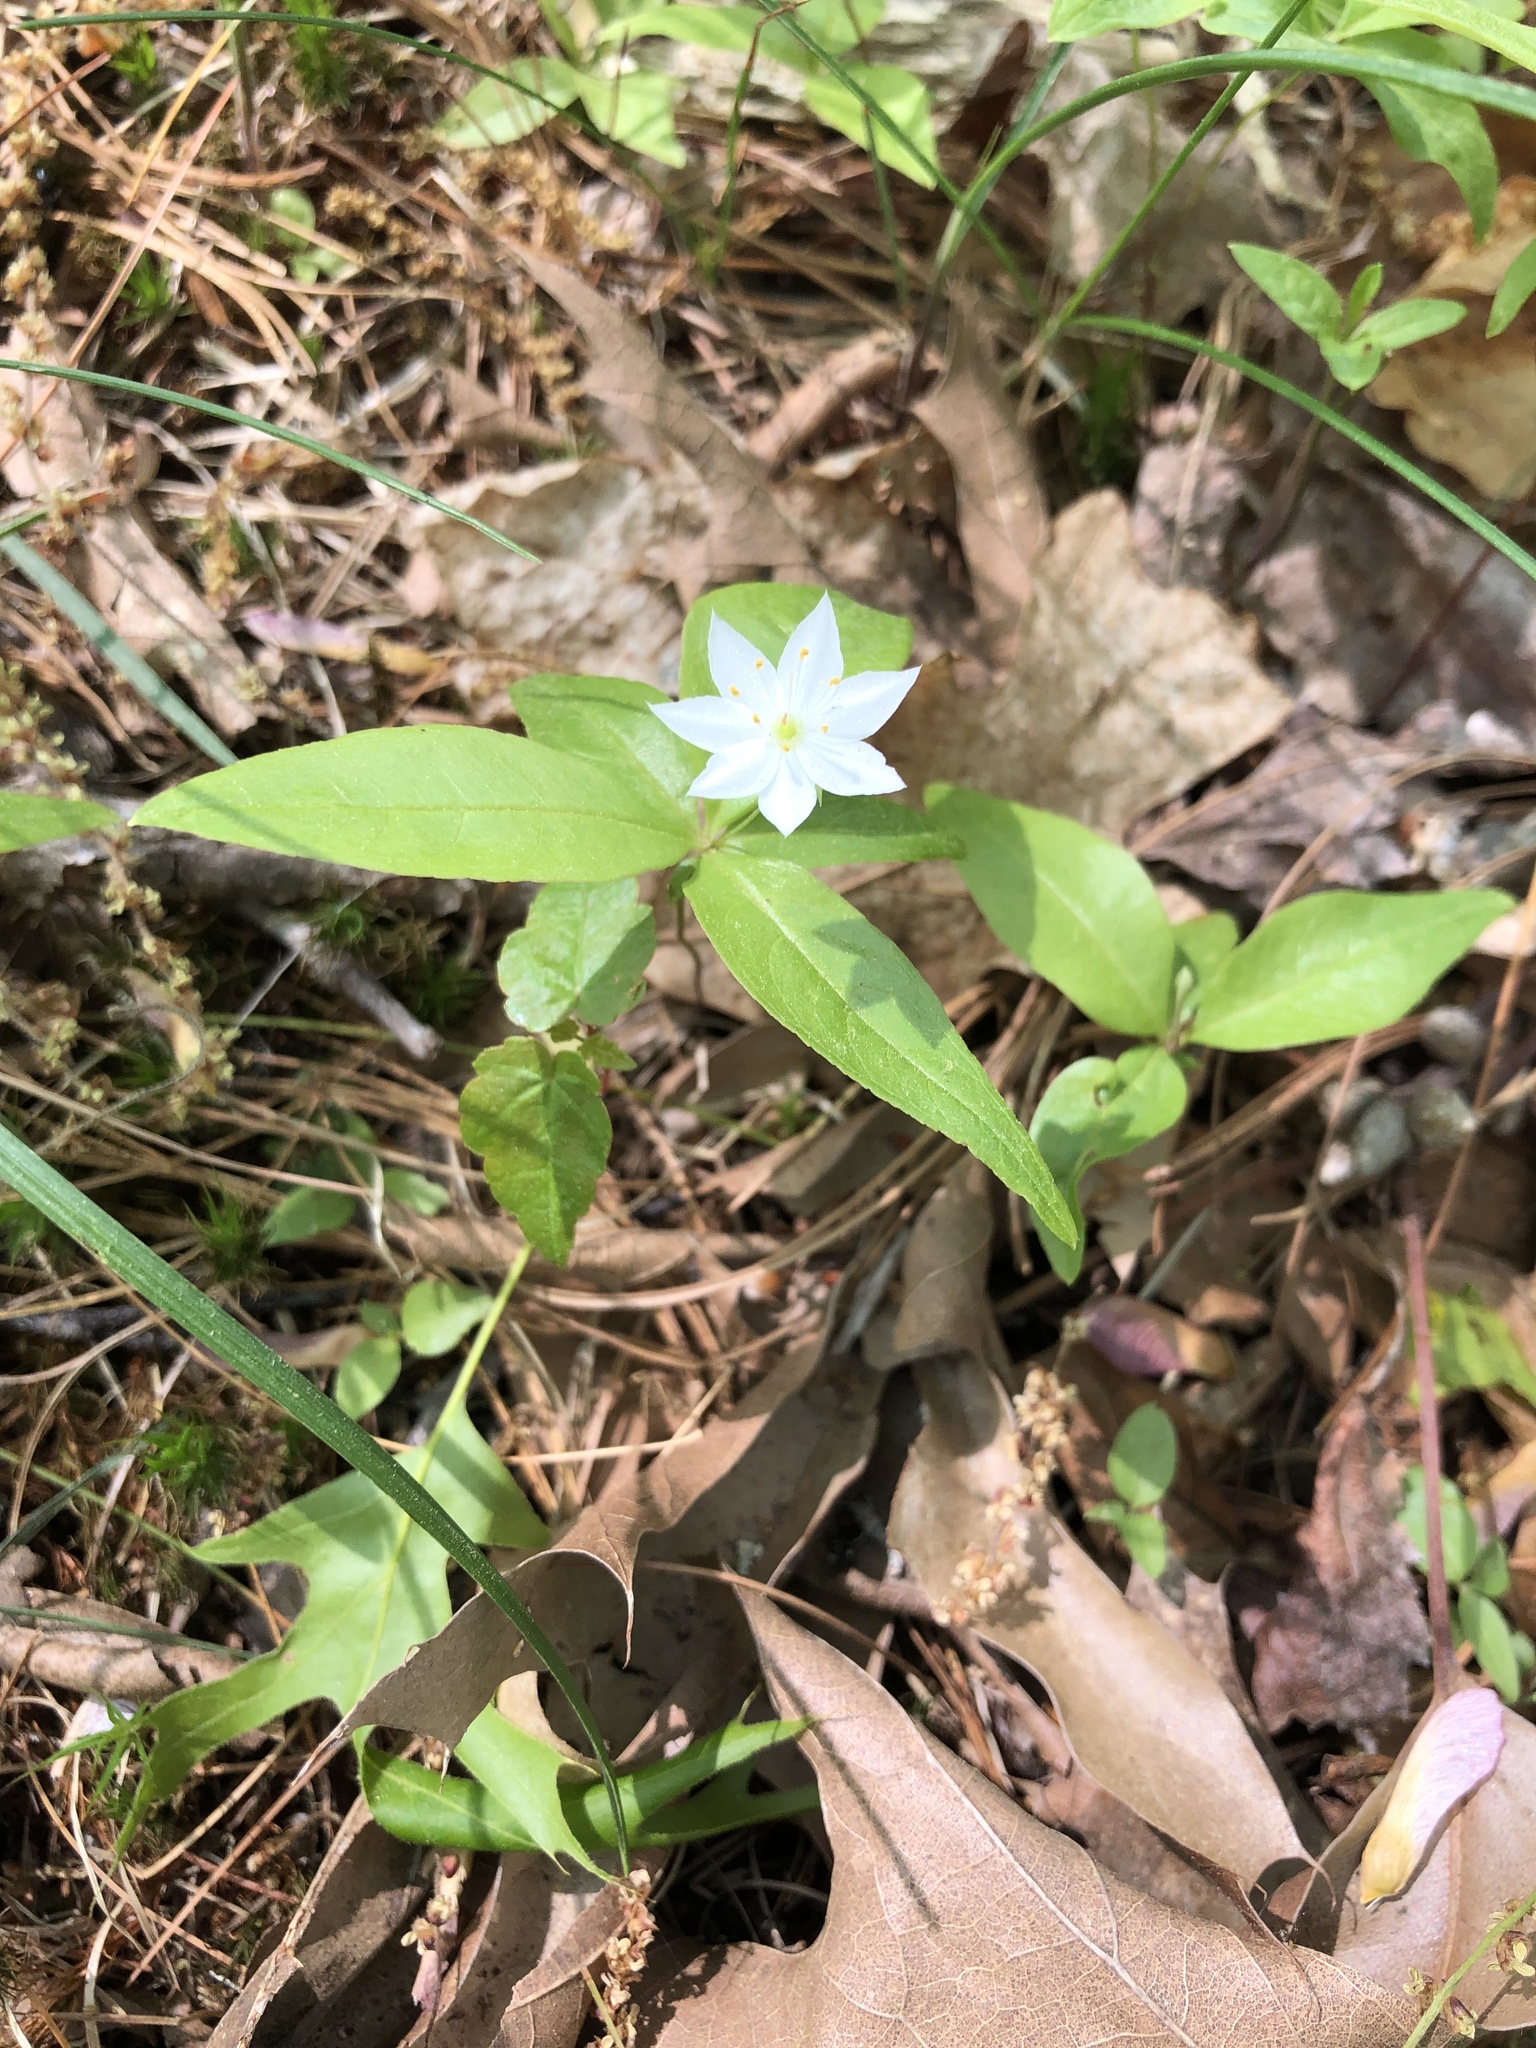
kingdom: Plantae
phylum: Tracheophyta
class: Magnoliopsida
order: Ericales
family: Primulaceae
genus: Lysimachia
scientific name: Lysimachia borealis
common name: American starflower
